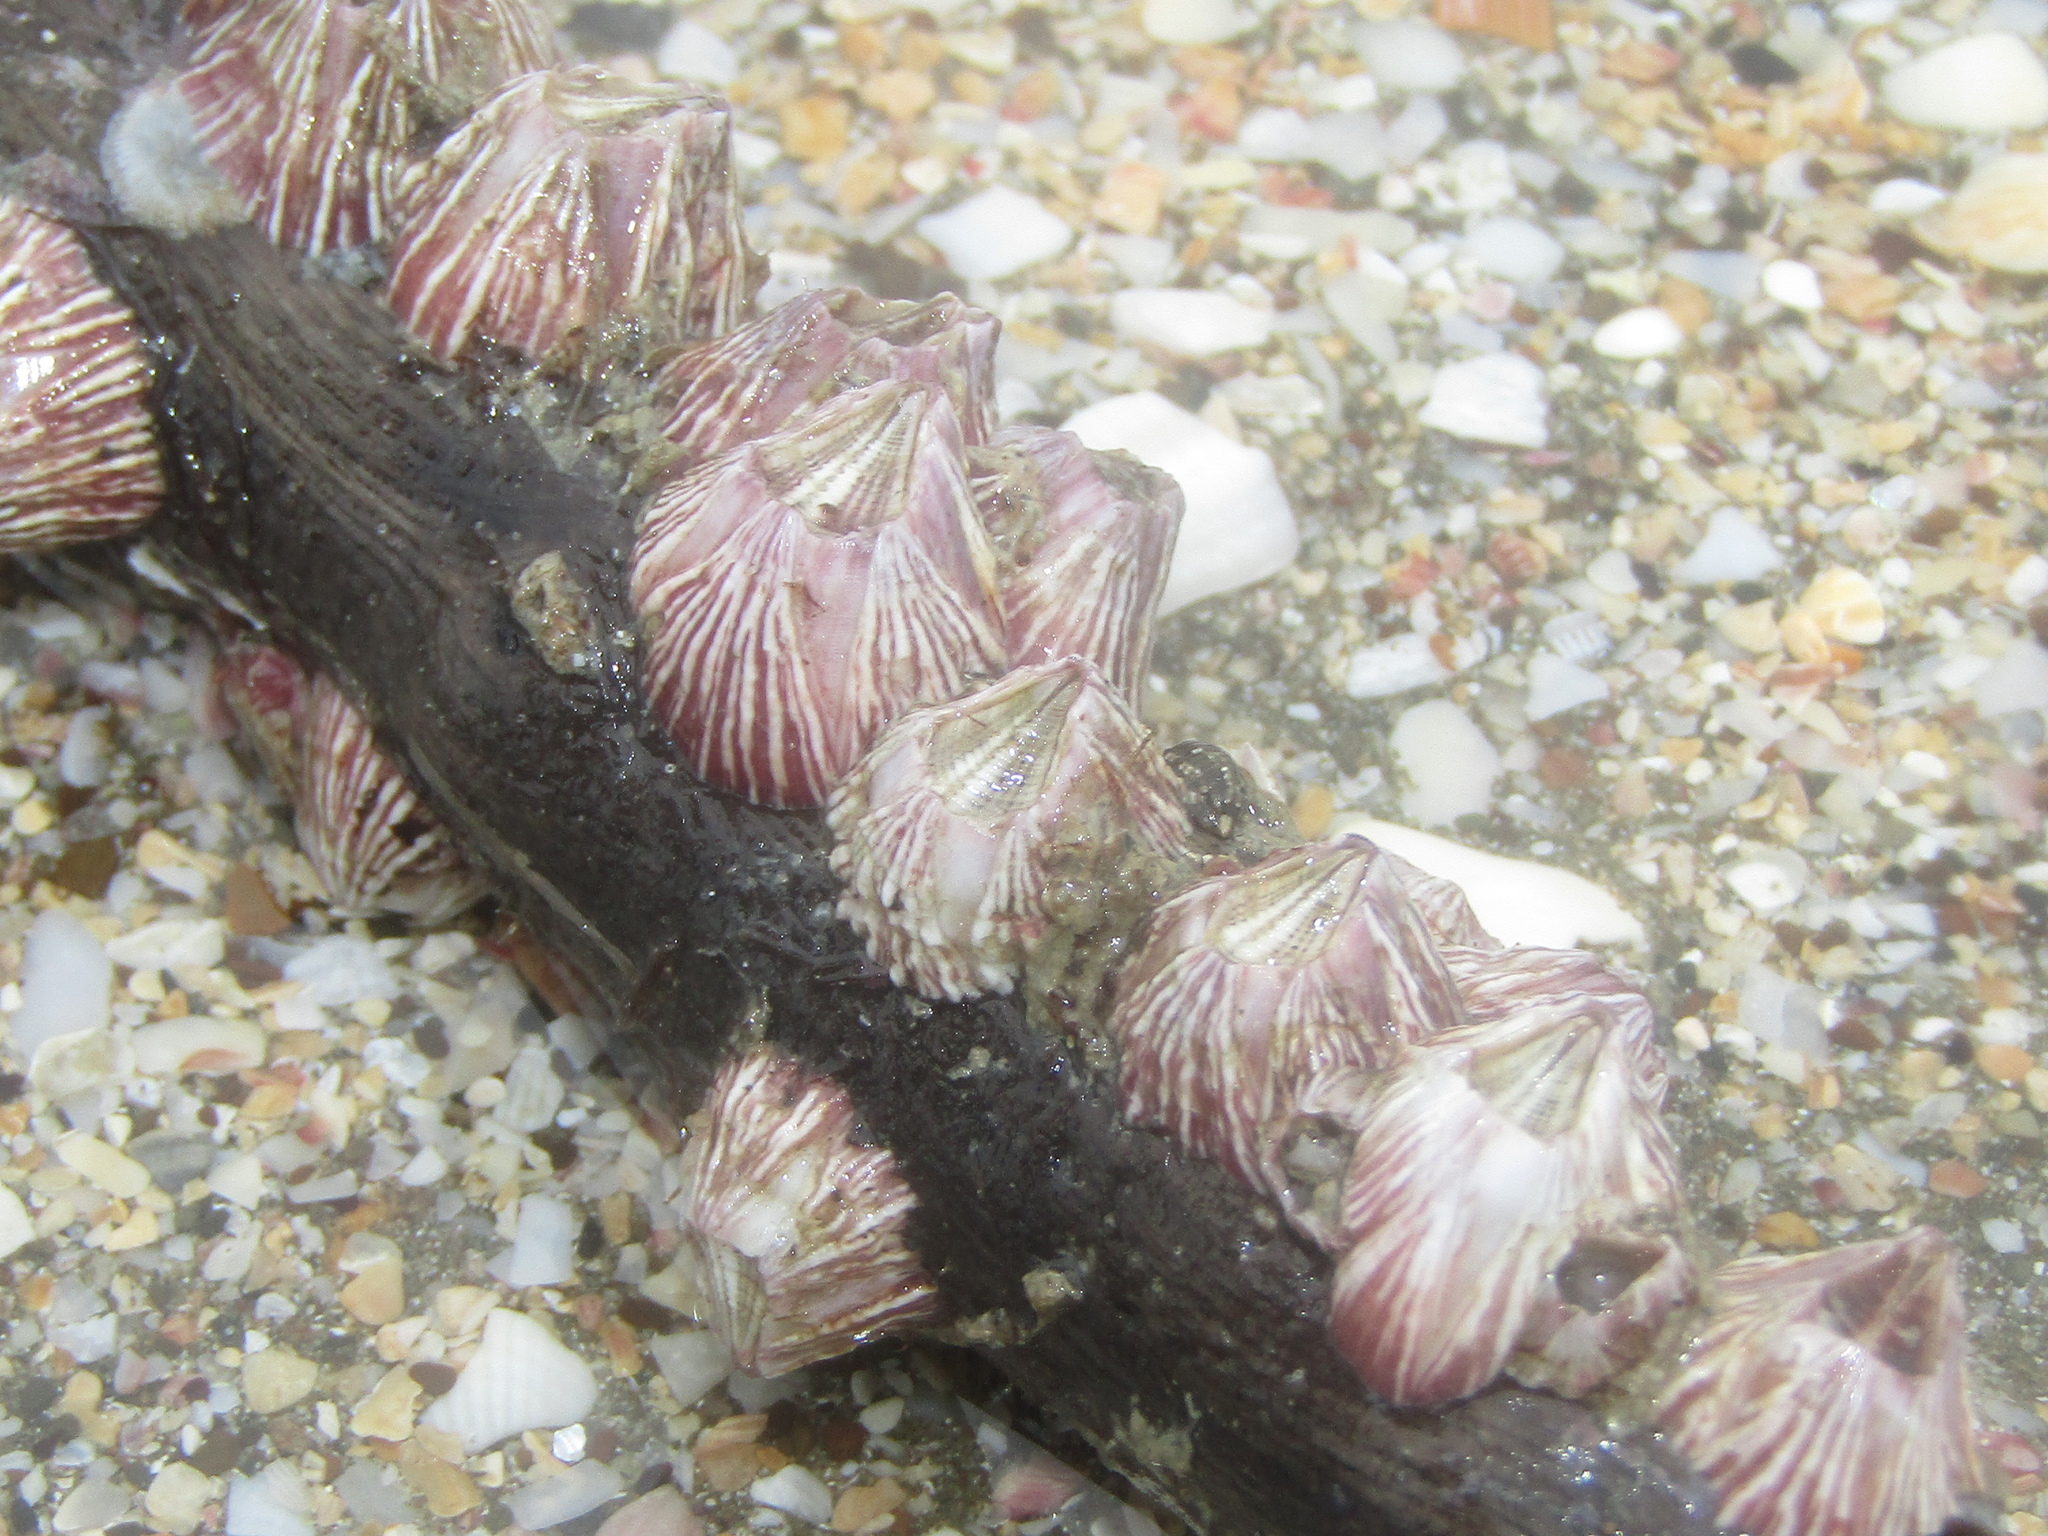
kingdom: Animalia
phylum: Arthropoda
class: Maxillopoda
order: Sessilia
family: Balanidae
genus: Balanus
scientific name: Balanus trigonus
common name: Triangle barnacle
